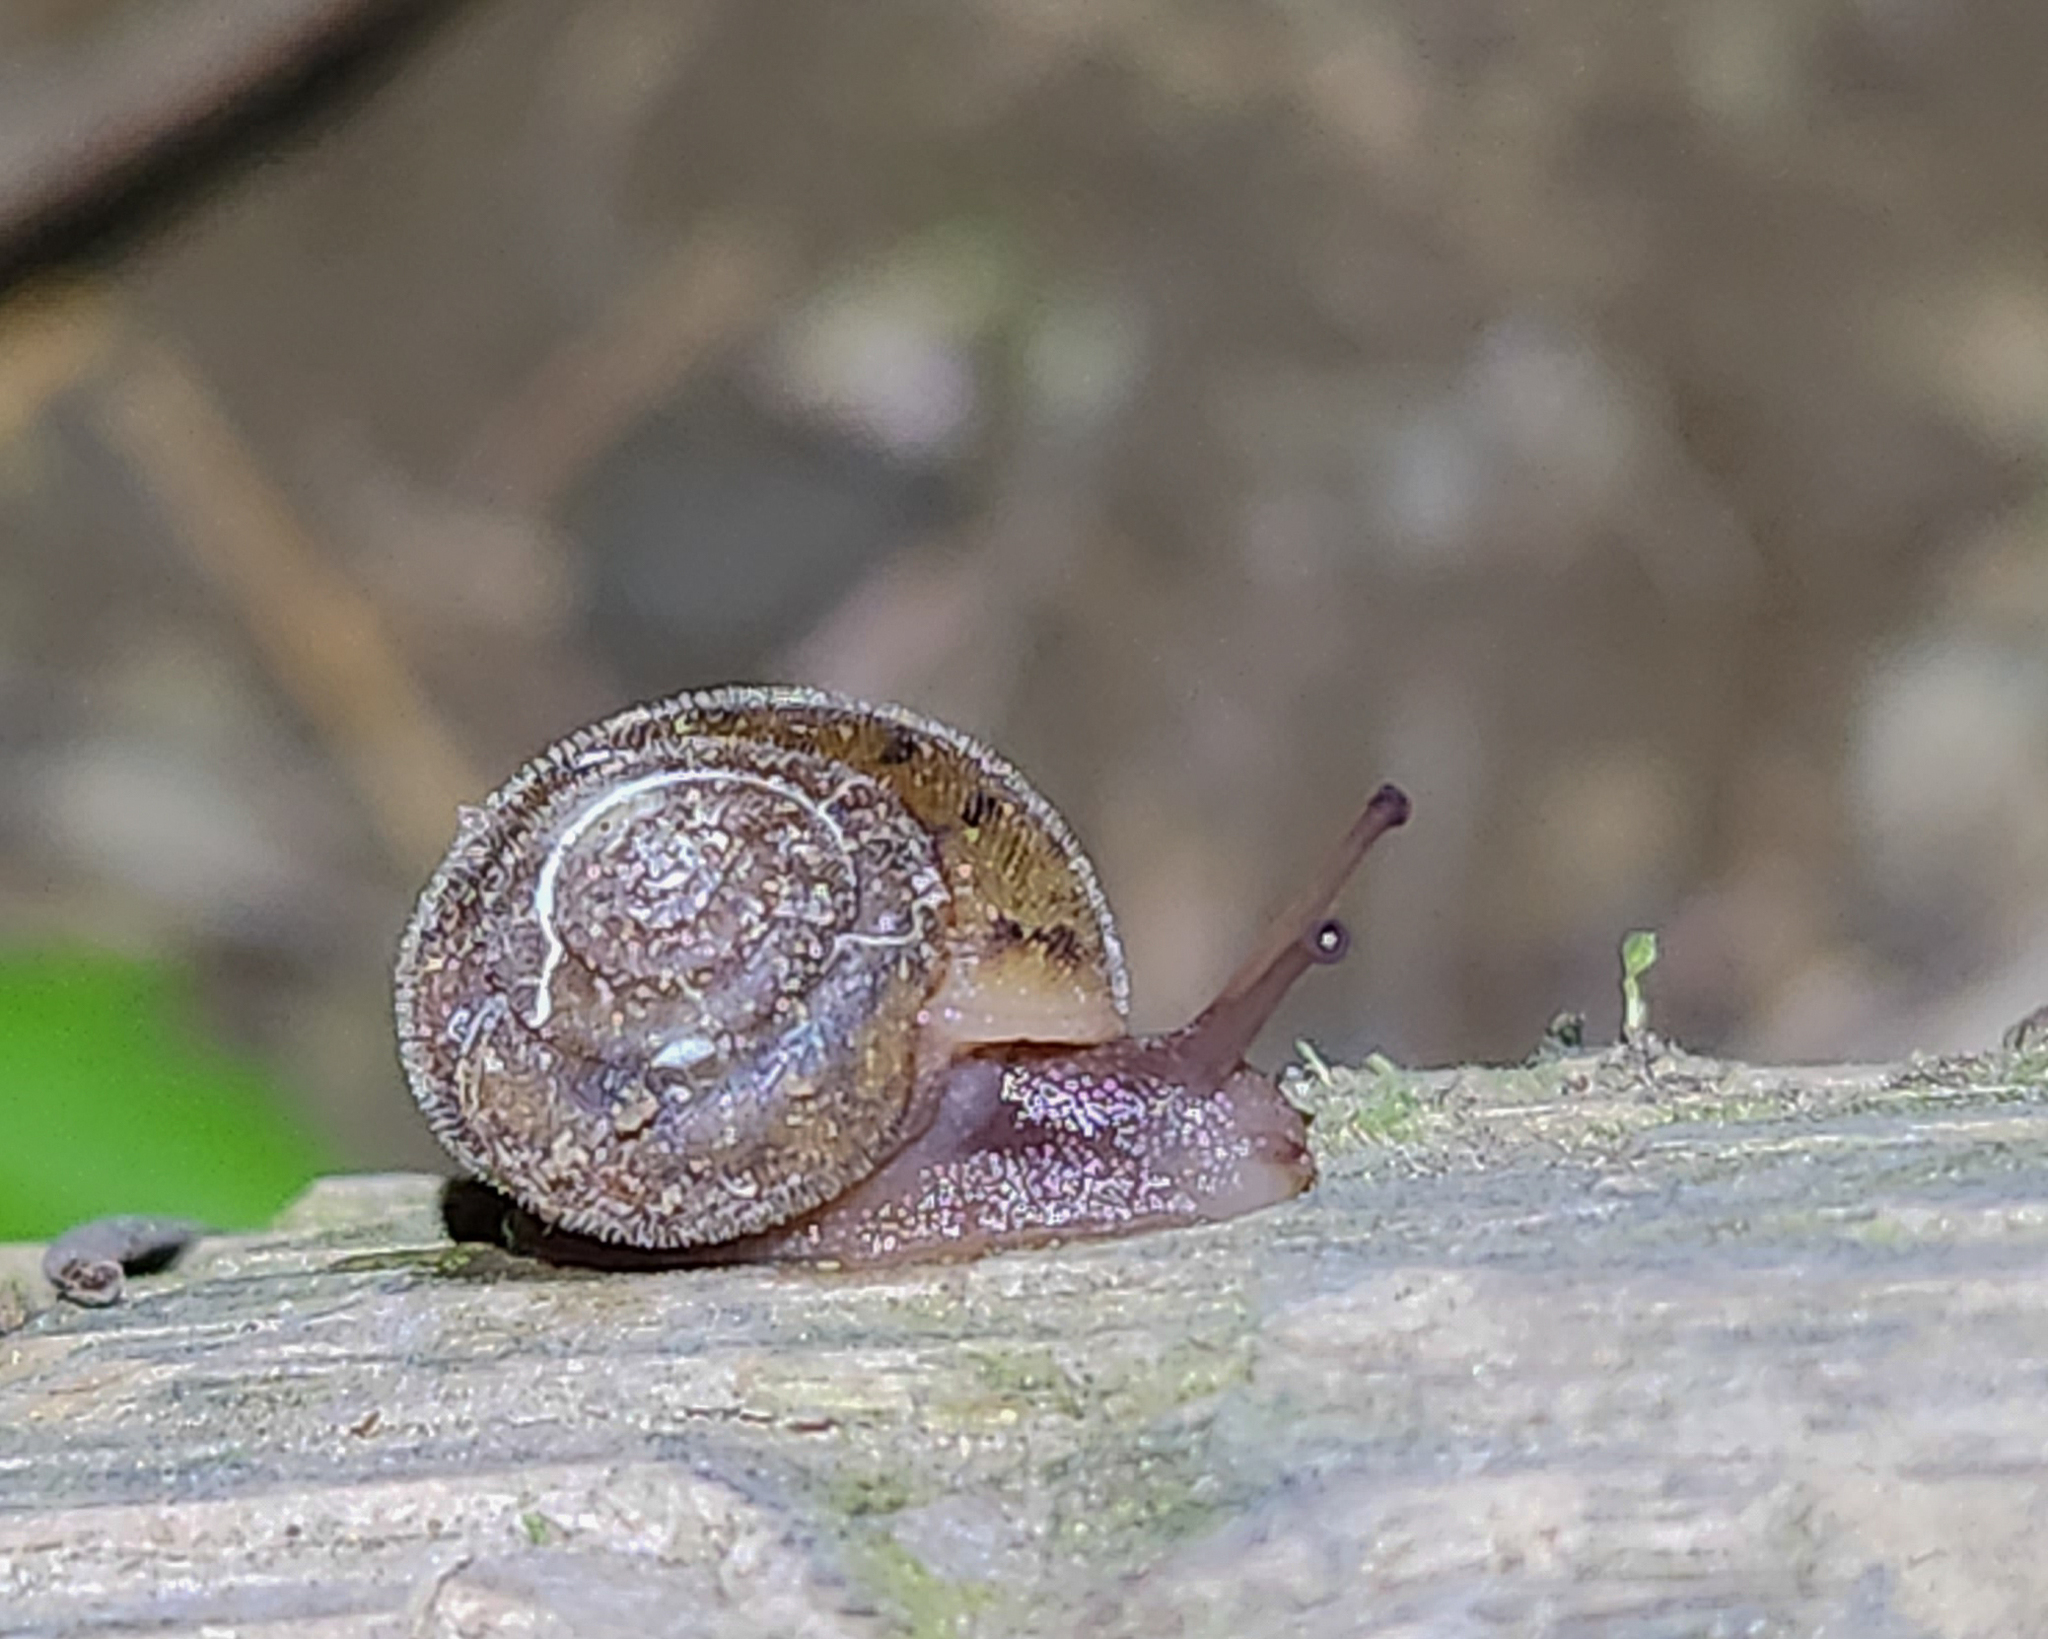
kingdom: Animalia
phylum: Mollusca
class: Gastropoda
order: Stylommatophora
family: Polygyridae
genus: Vespericola
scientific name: Vespericola columbianus
